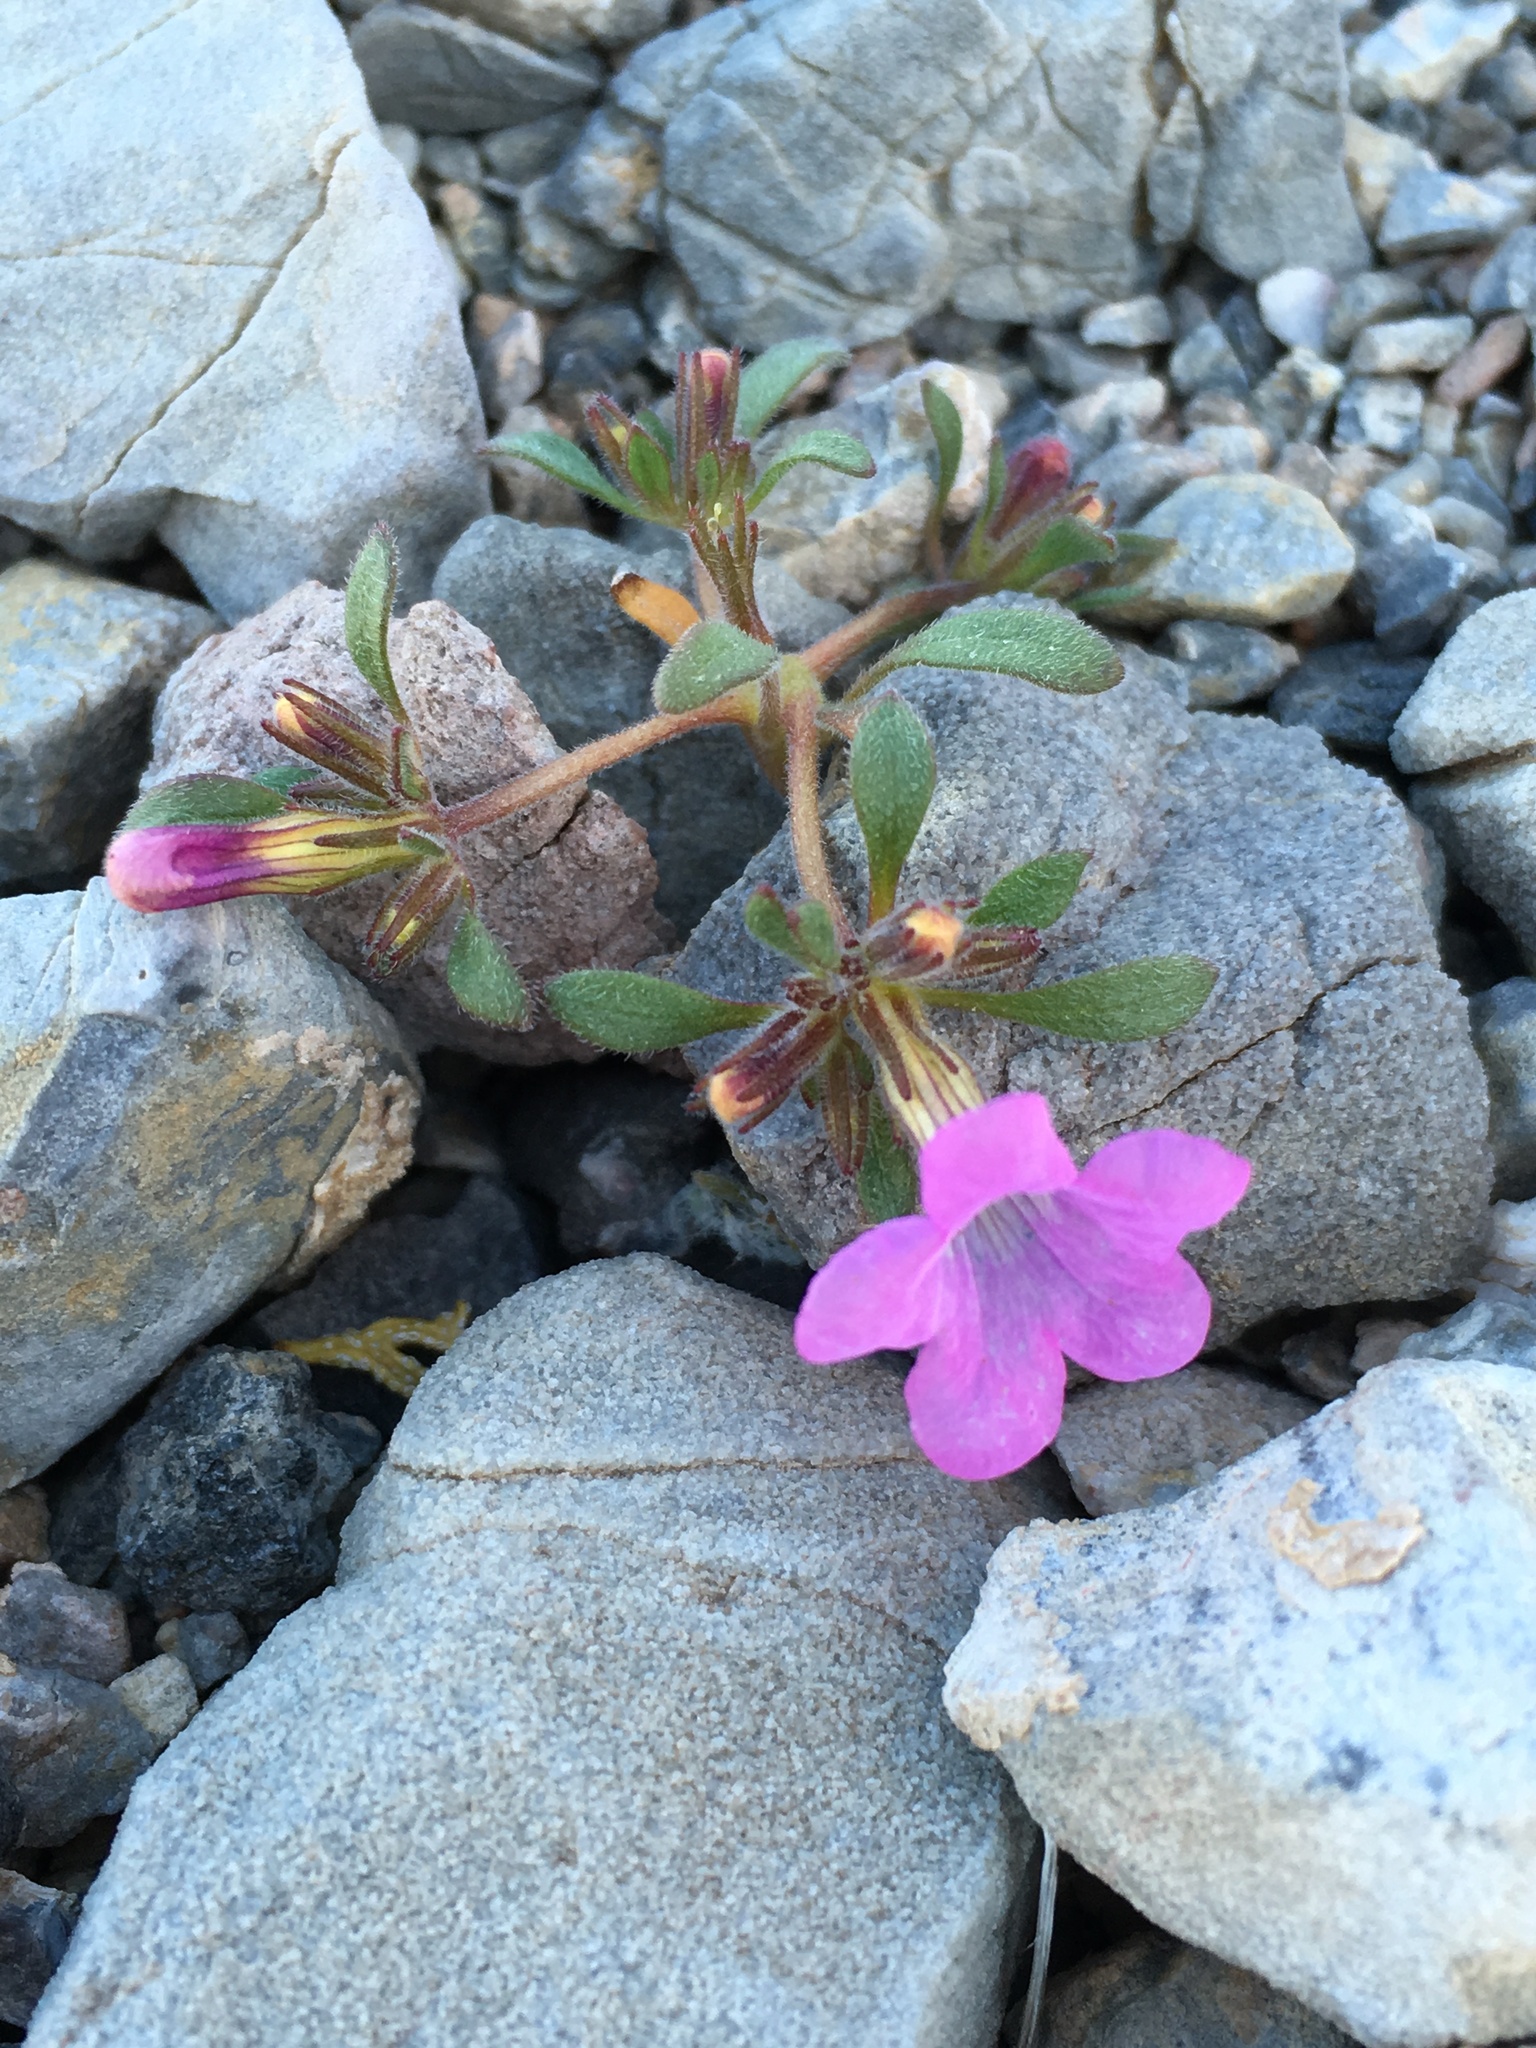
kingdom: Plantae
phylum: Tracheophyta
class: Magnoliopsida
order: Boraginales
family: Namaceae
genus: Nama
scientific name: Nama demissa
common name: Leafy nama
